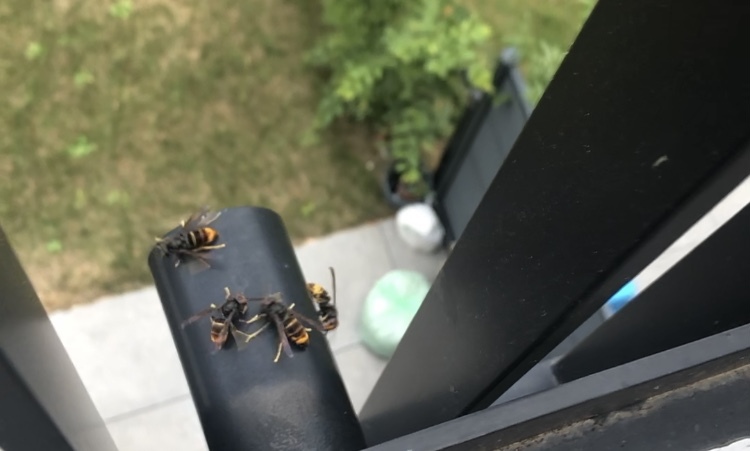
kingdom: Animalia
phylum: Arthropoda
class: Insecta
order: Hymenoptera
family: Vespidae
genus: Vespa
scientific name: Vespa velutina
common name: Asian hornet
